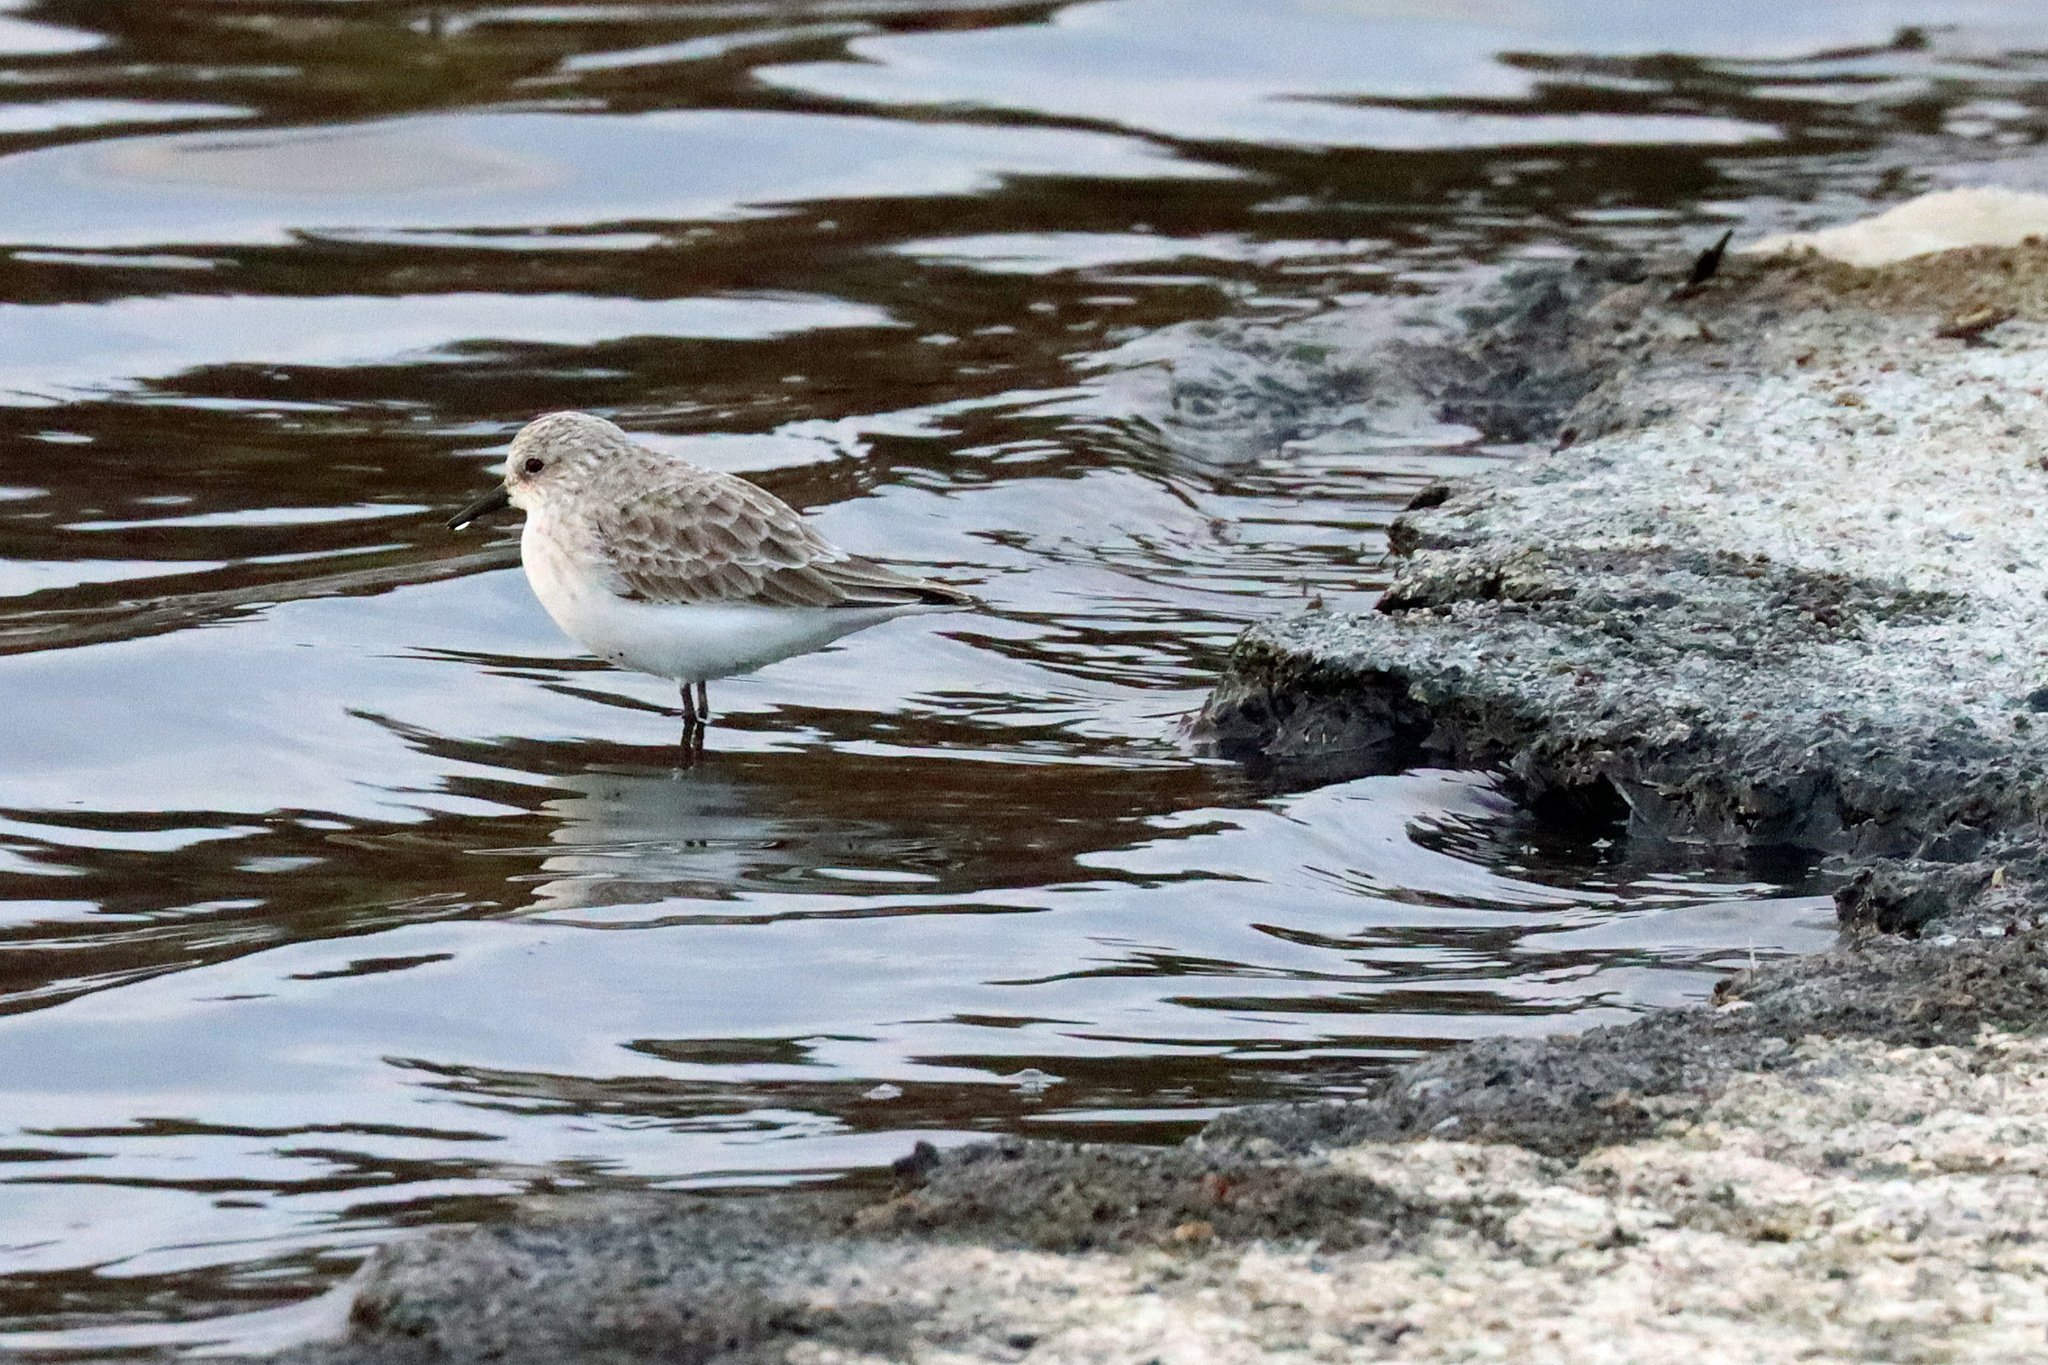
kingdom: Animalia
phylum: Chordata
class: Aves
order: Charadriiformes
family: Scolopacidae
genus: Calidris
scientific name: Calidris alba
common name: Sanderling
